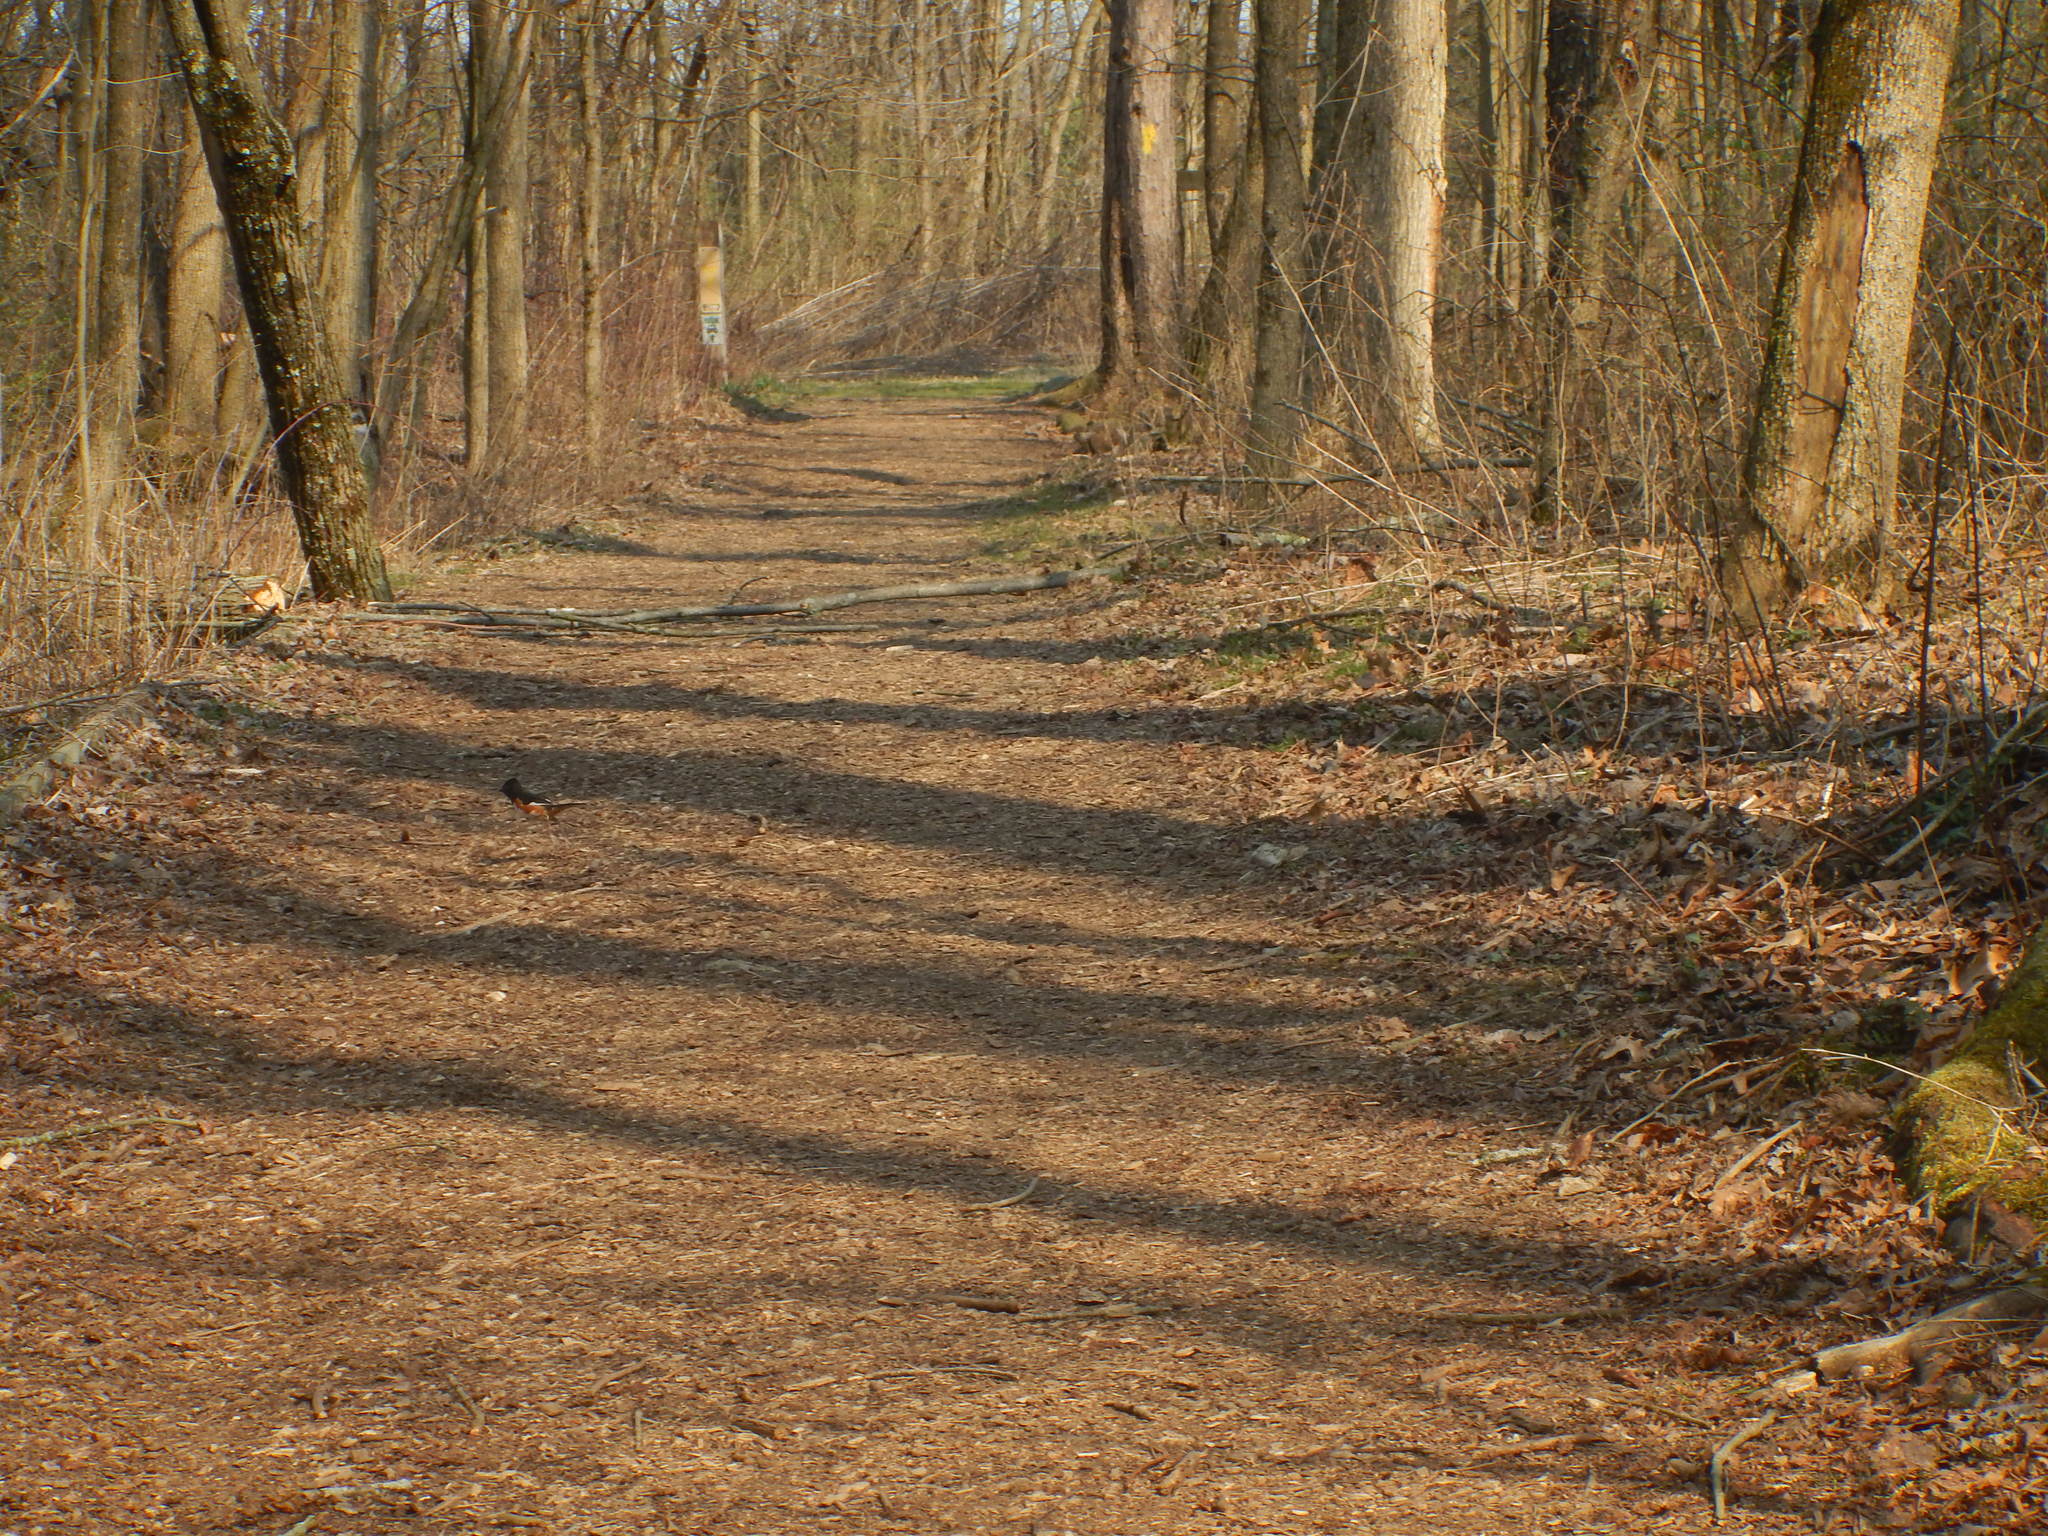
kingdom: Animalia
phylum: Chordata
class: Aves
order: Passeriformes
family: Passerellidae
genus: Pipilo
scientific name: Pipilo erythrophthalmus
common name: Eastern towhee
